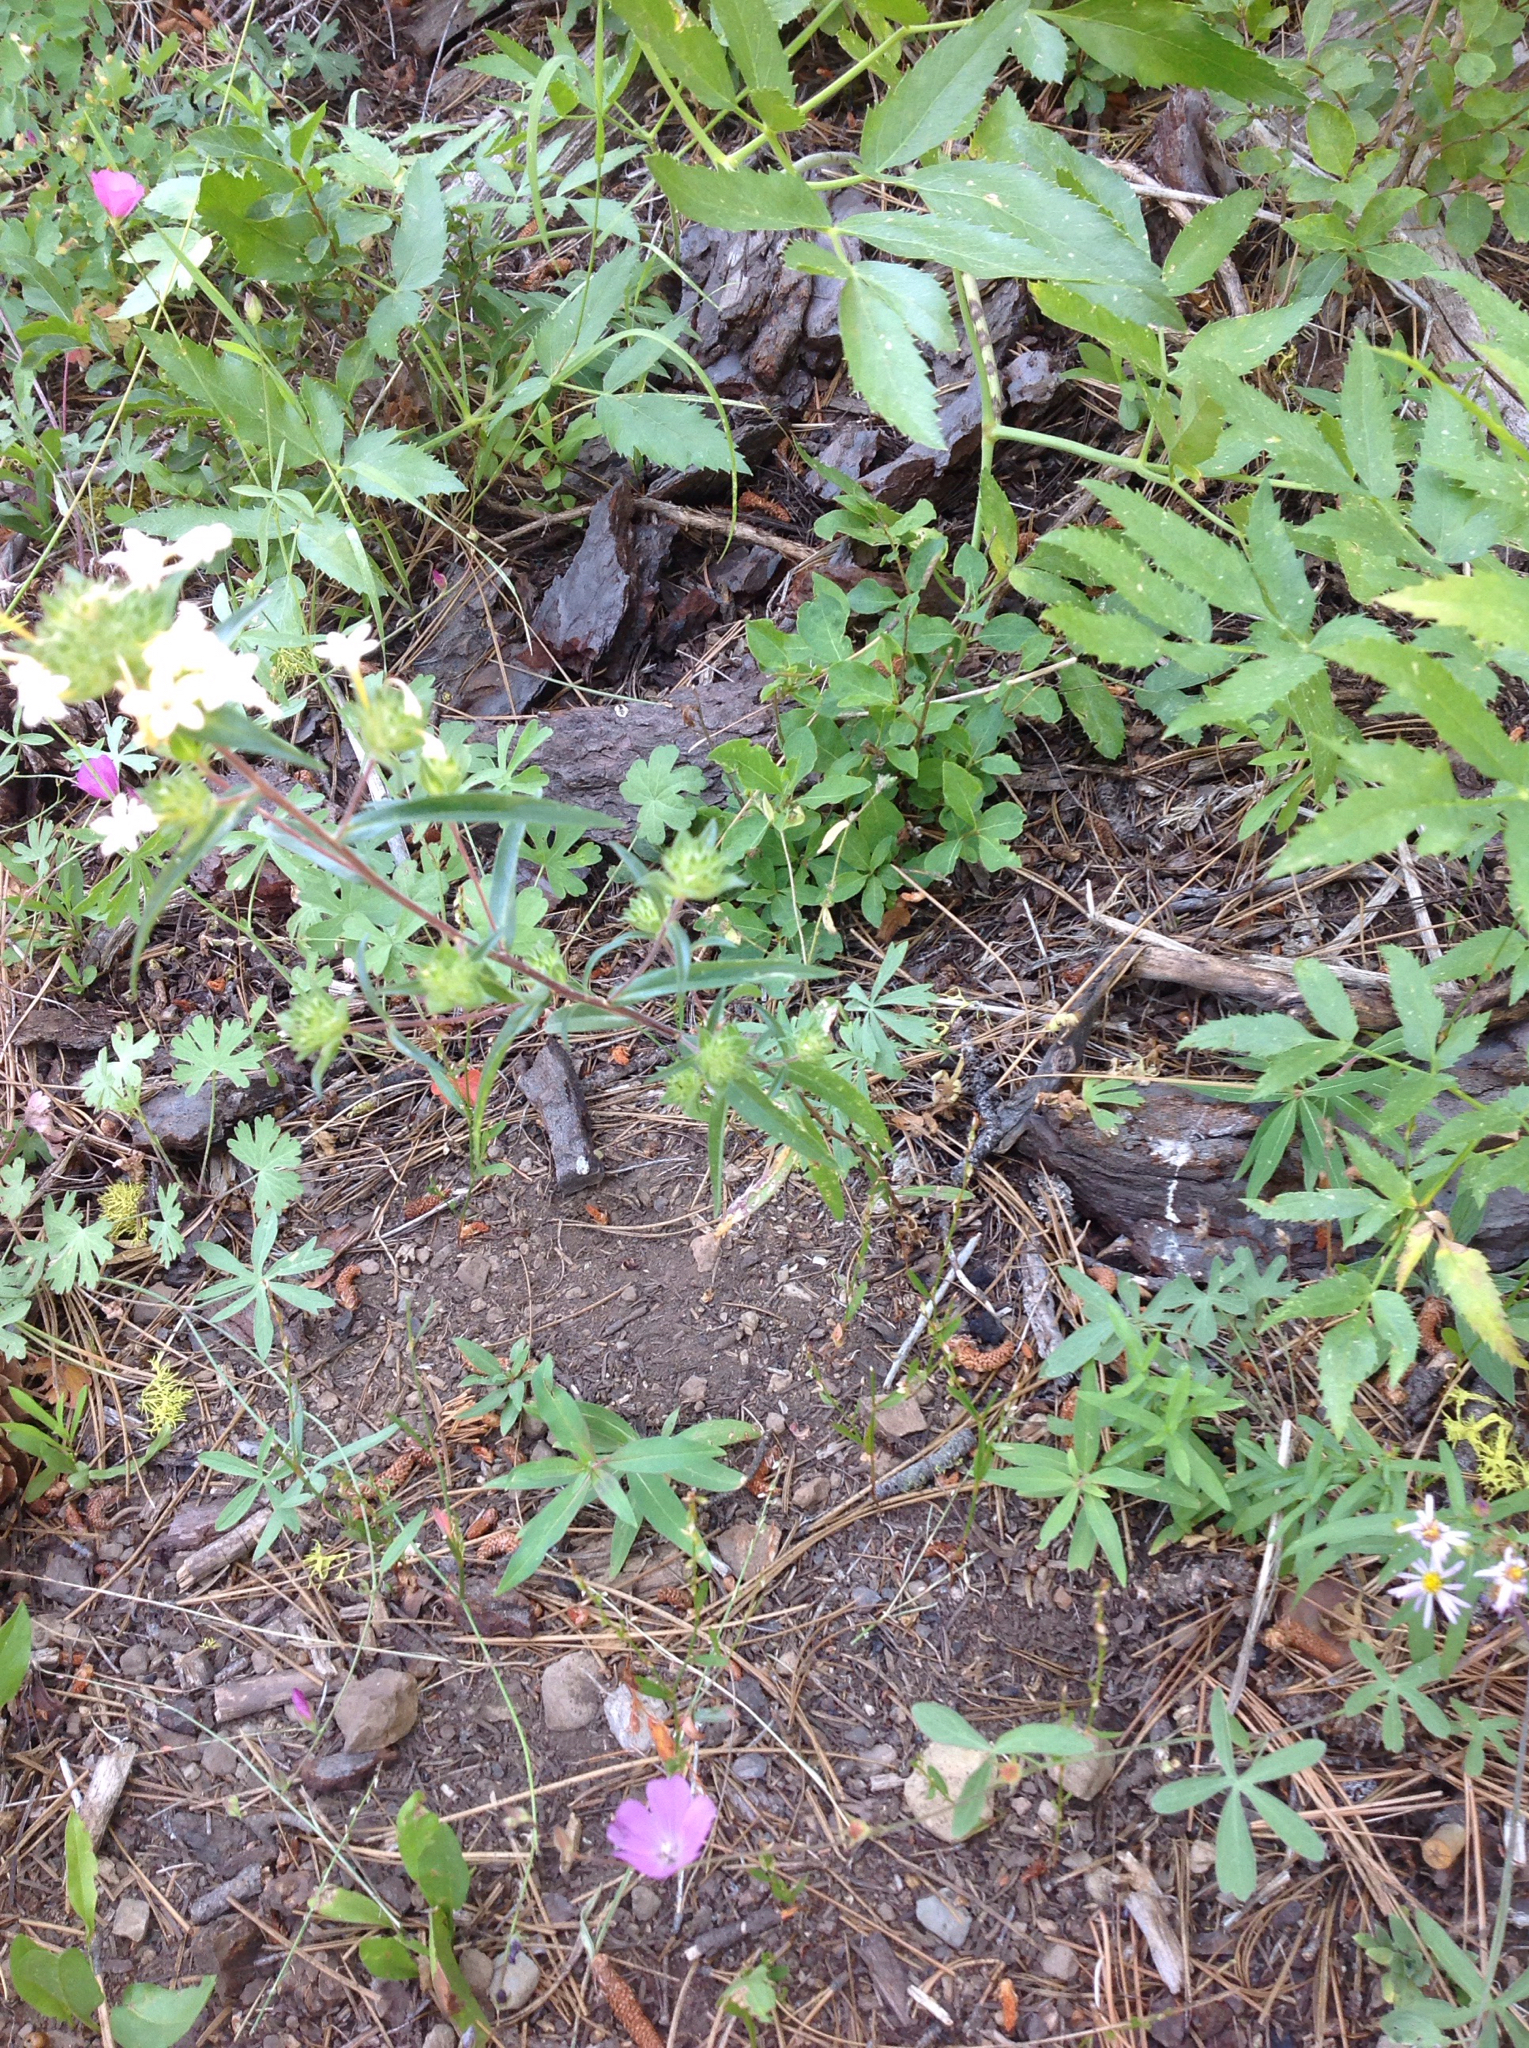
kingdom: Plantae
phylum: Tracheophyta
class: Magnoliopsida
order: Ericales
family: Polemoniaceae
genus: Collomia
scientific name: Collomia grandiflora
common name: California strawflower
